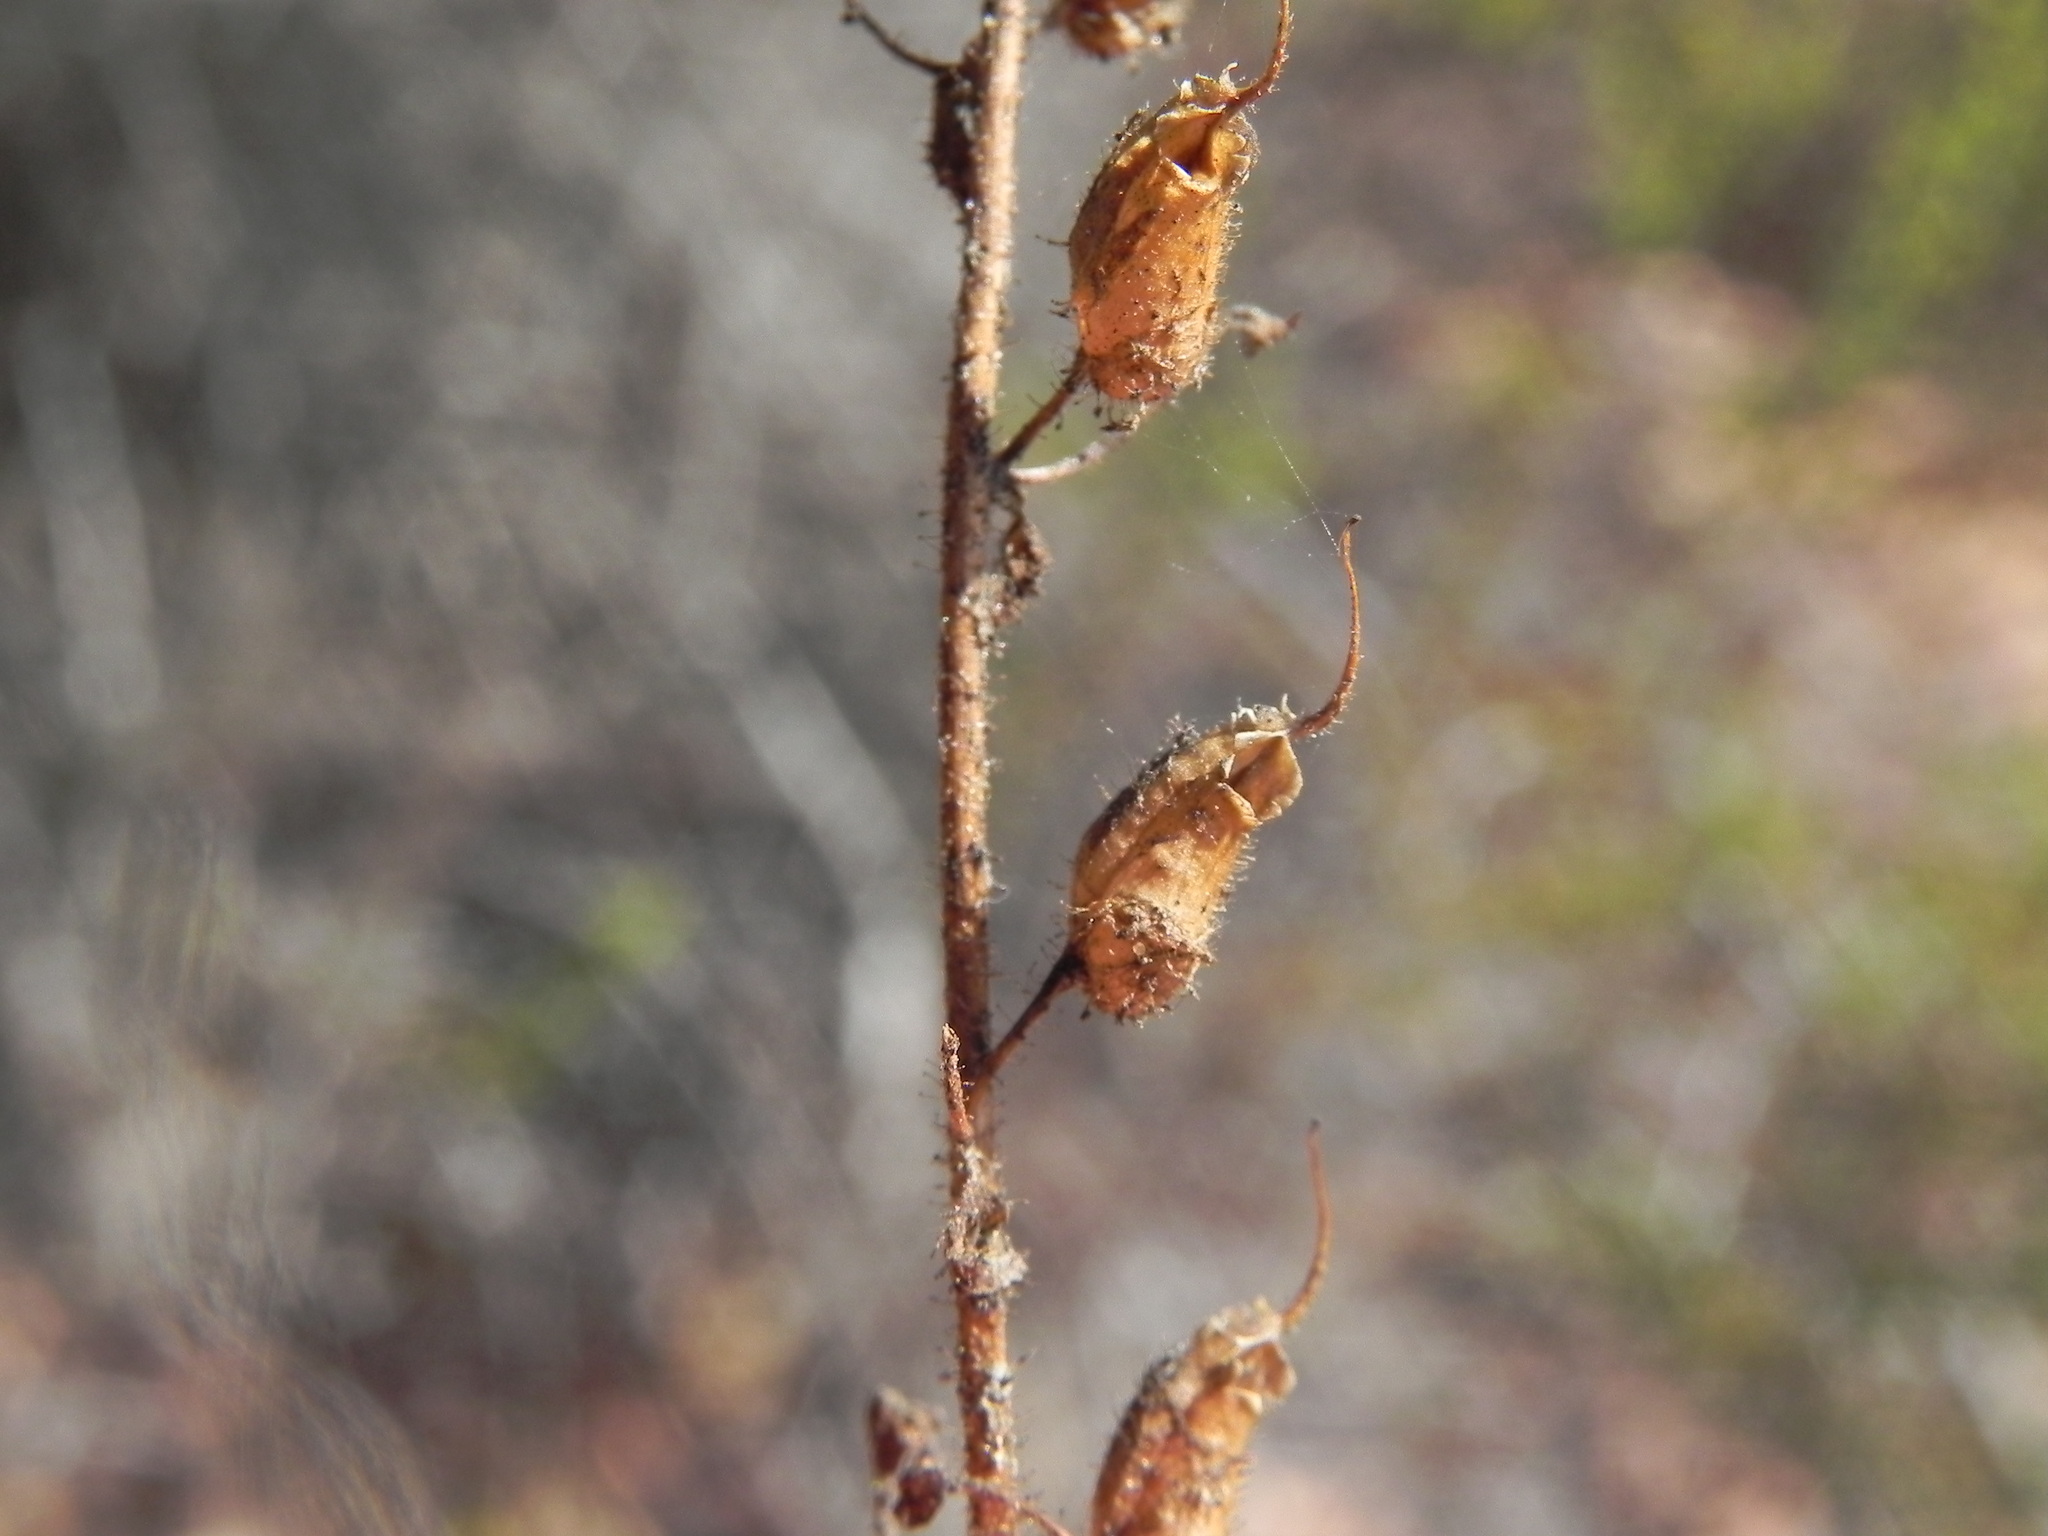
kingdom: Plantae
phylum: Tracheophyta
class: Magnoliopsida
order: Lamiales
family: Plantaginaceae
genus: Sairocarpus
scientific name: Sairocarpus nuttallianus
